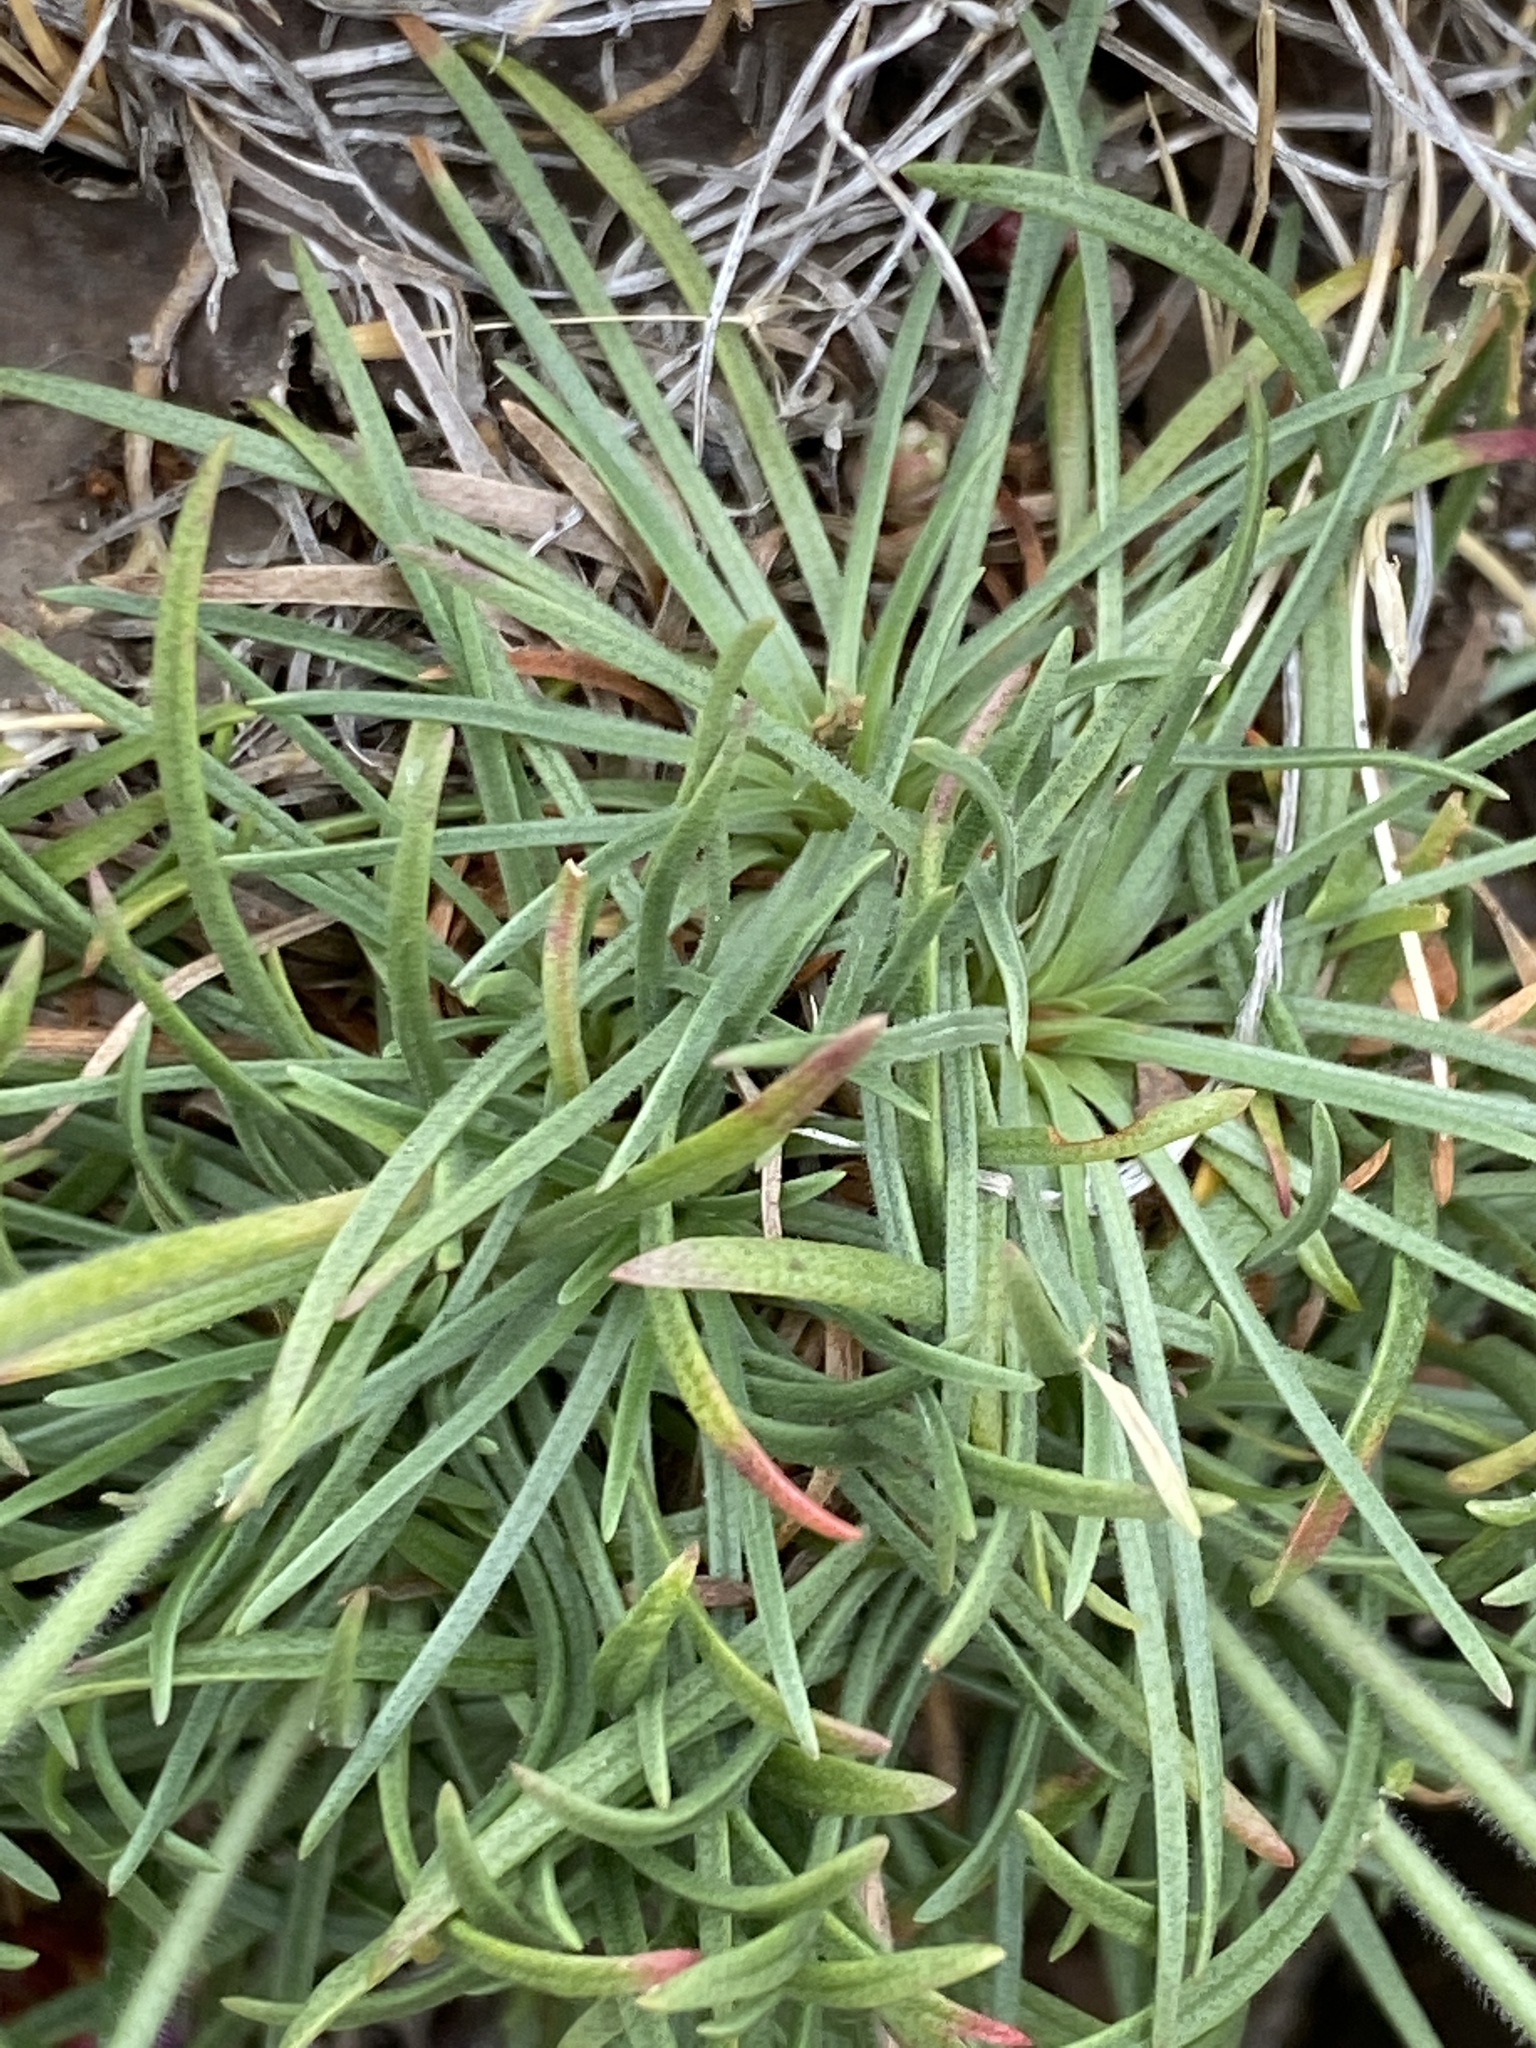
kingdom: Plantae
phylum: Tracheophyta
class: Magnoliopsida
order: Caryophyllales
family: Plumbaginaceae
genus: Armeria
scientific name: Armeria maritima
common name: Thrift
